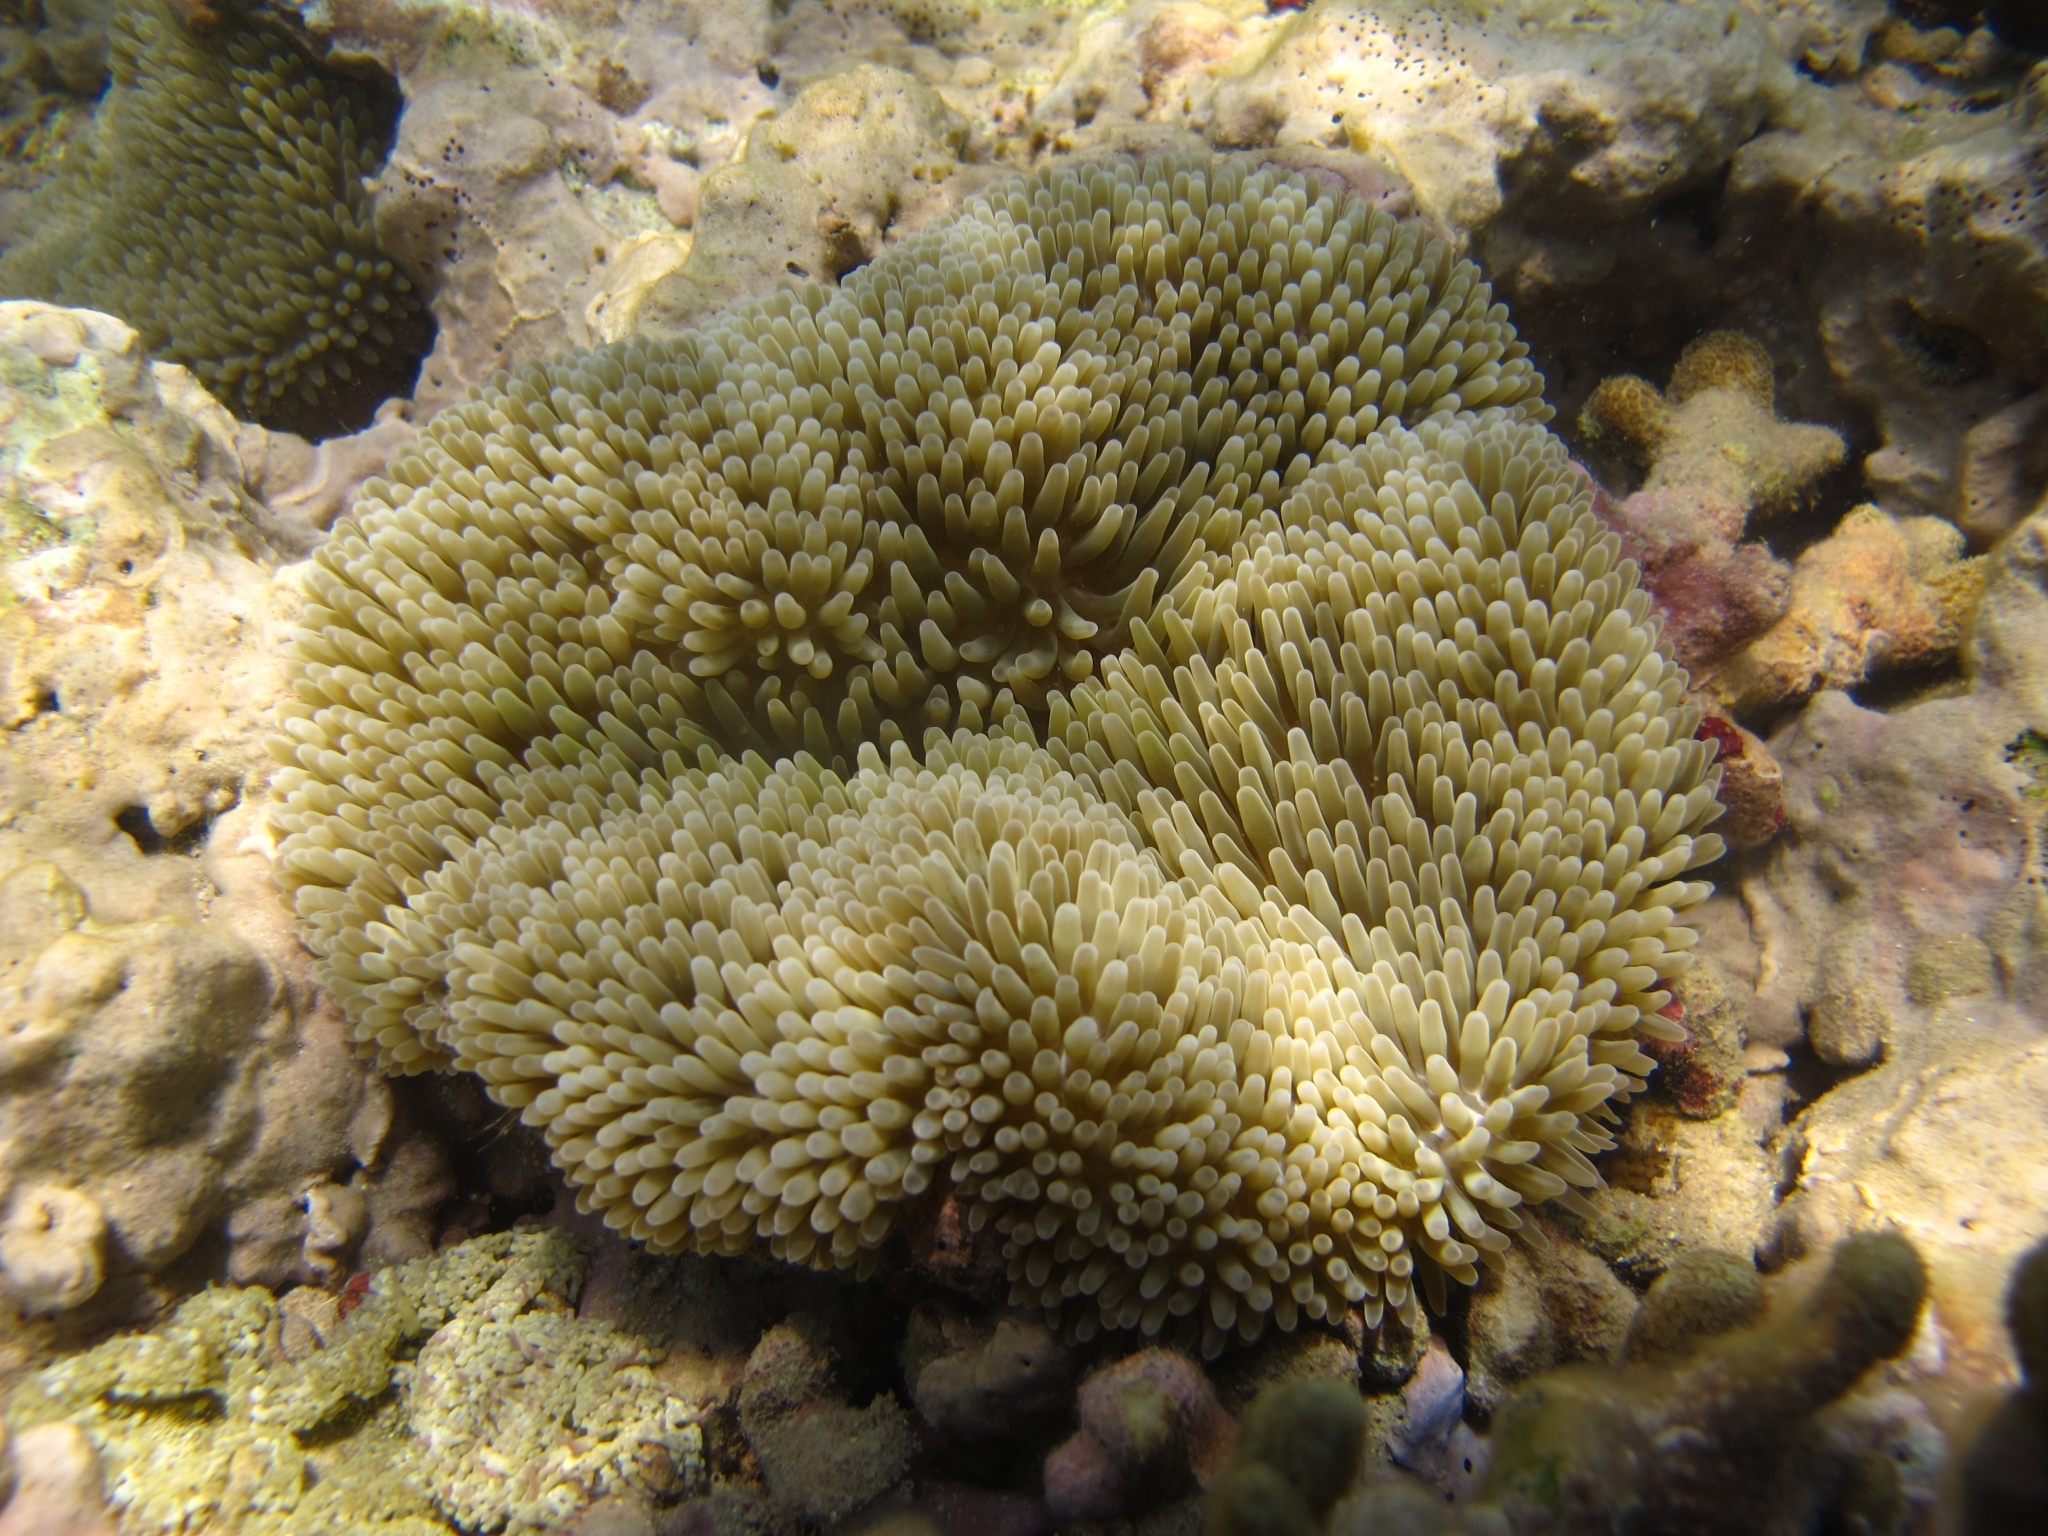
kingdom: Animalia
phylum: Cnidaria
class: Anthozoa
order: Actiniaria
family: Stichodactylidae
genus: Stichodactyla
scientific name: Stichodactyla helianthus
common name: Sun anemone
